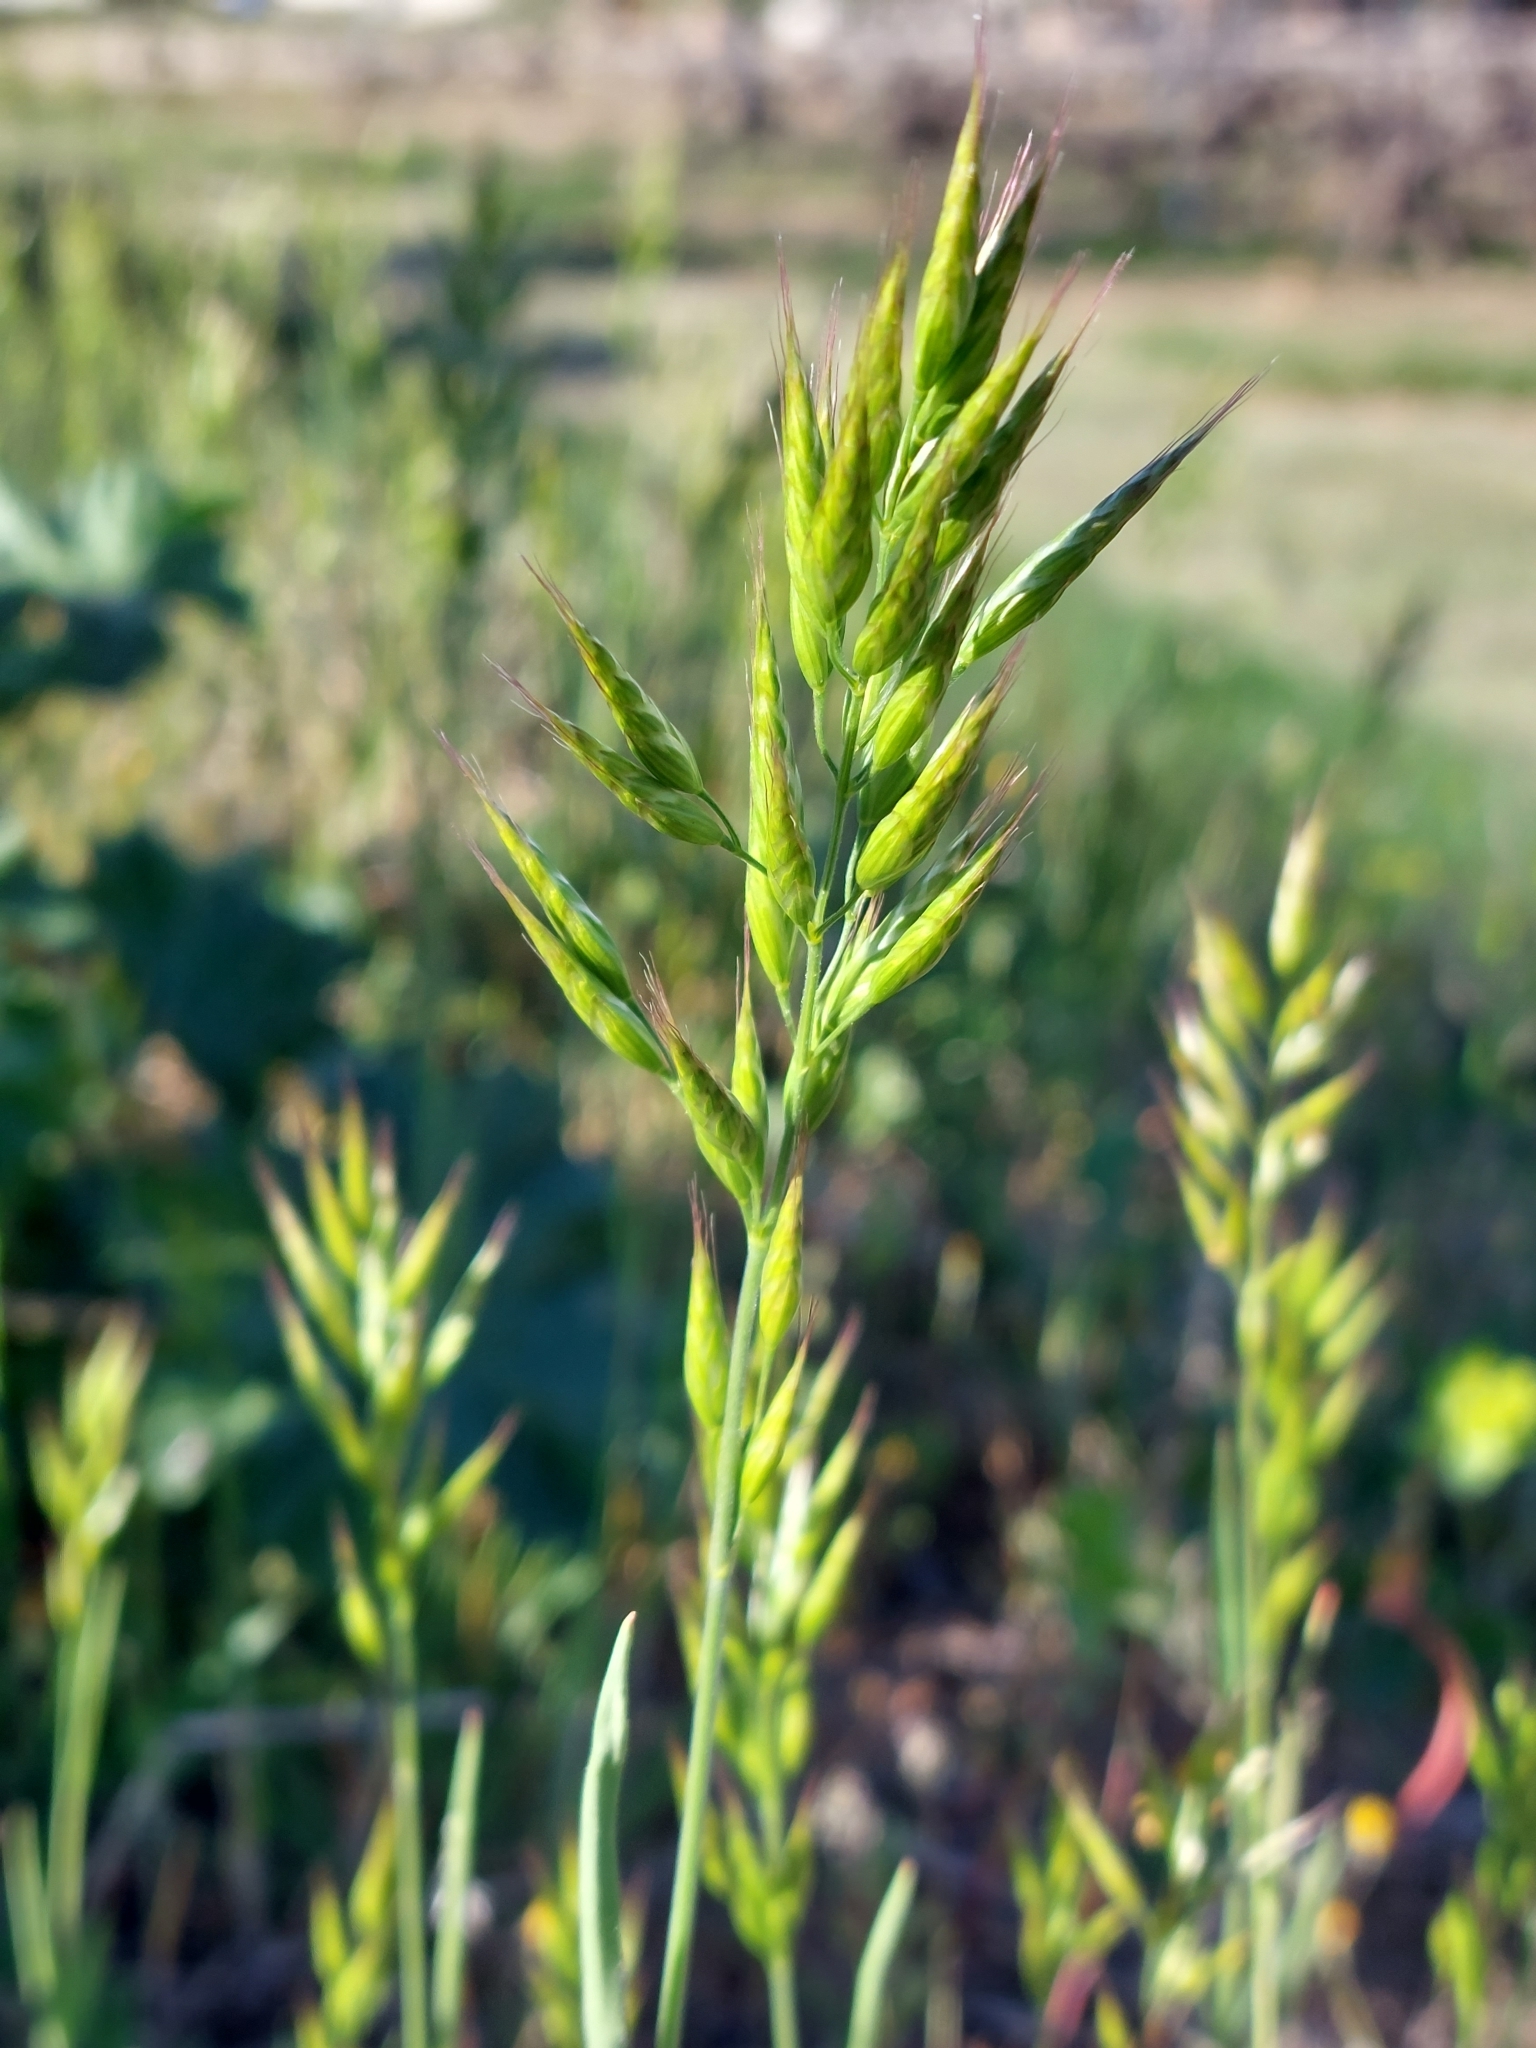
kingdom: Plantae
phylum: Tracheophyta
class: Liliopsida
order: Poales
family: Poaceae
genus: Bromus
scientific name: Bromus hordeaceus
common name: Soft brome
